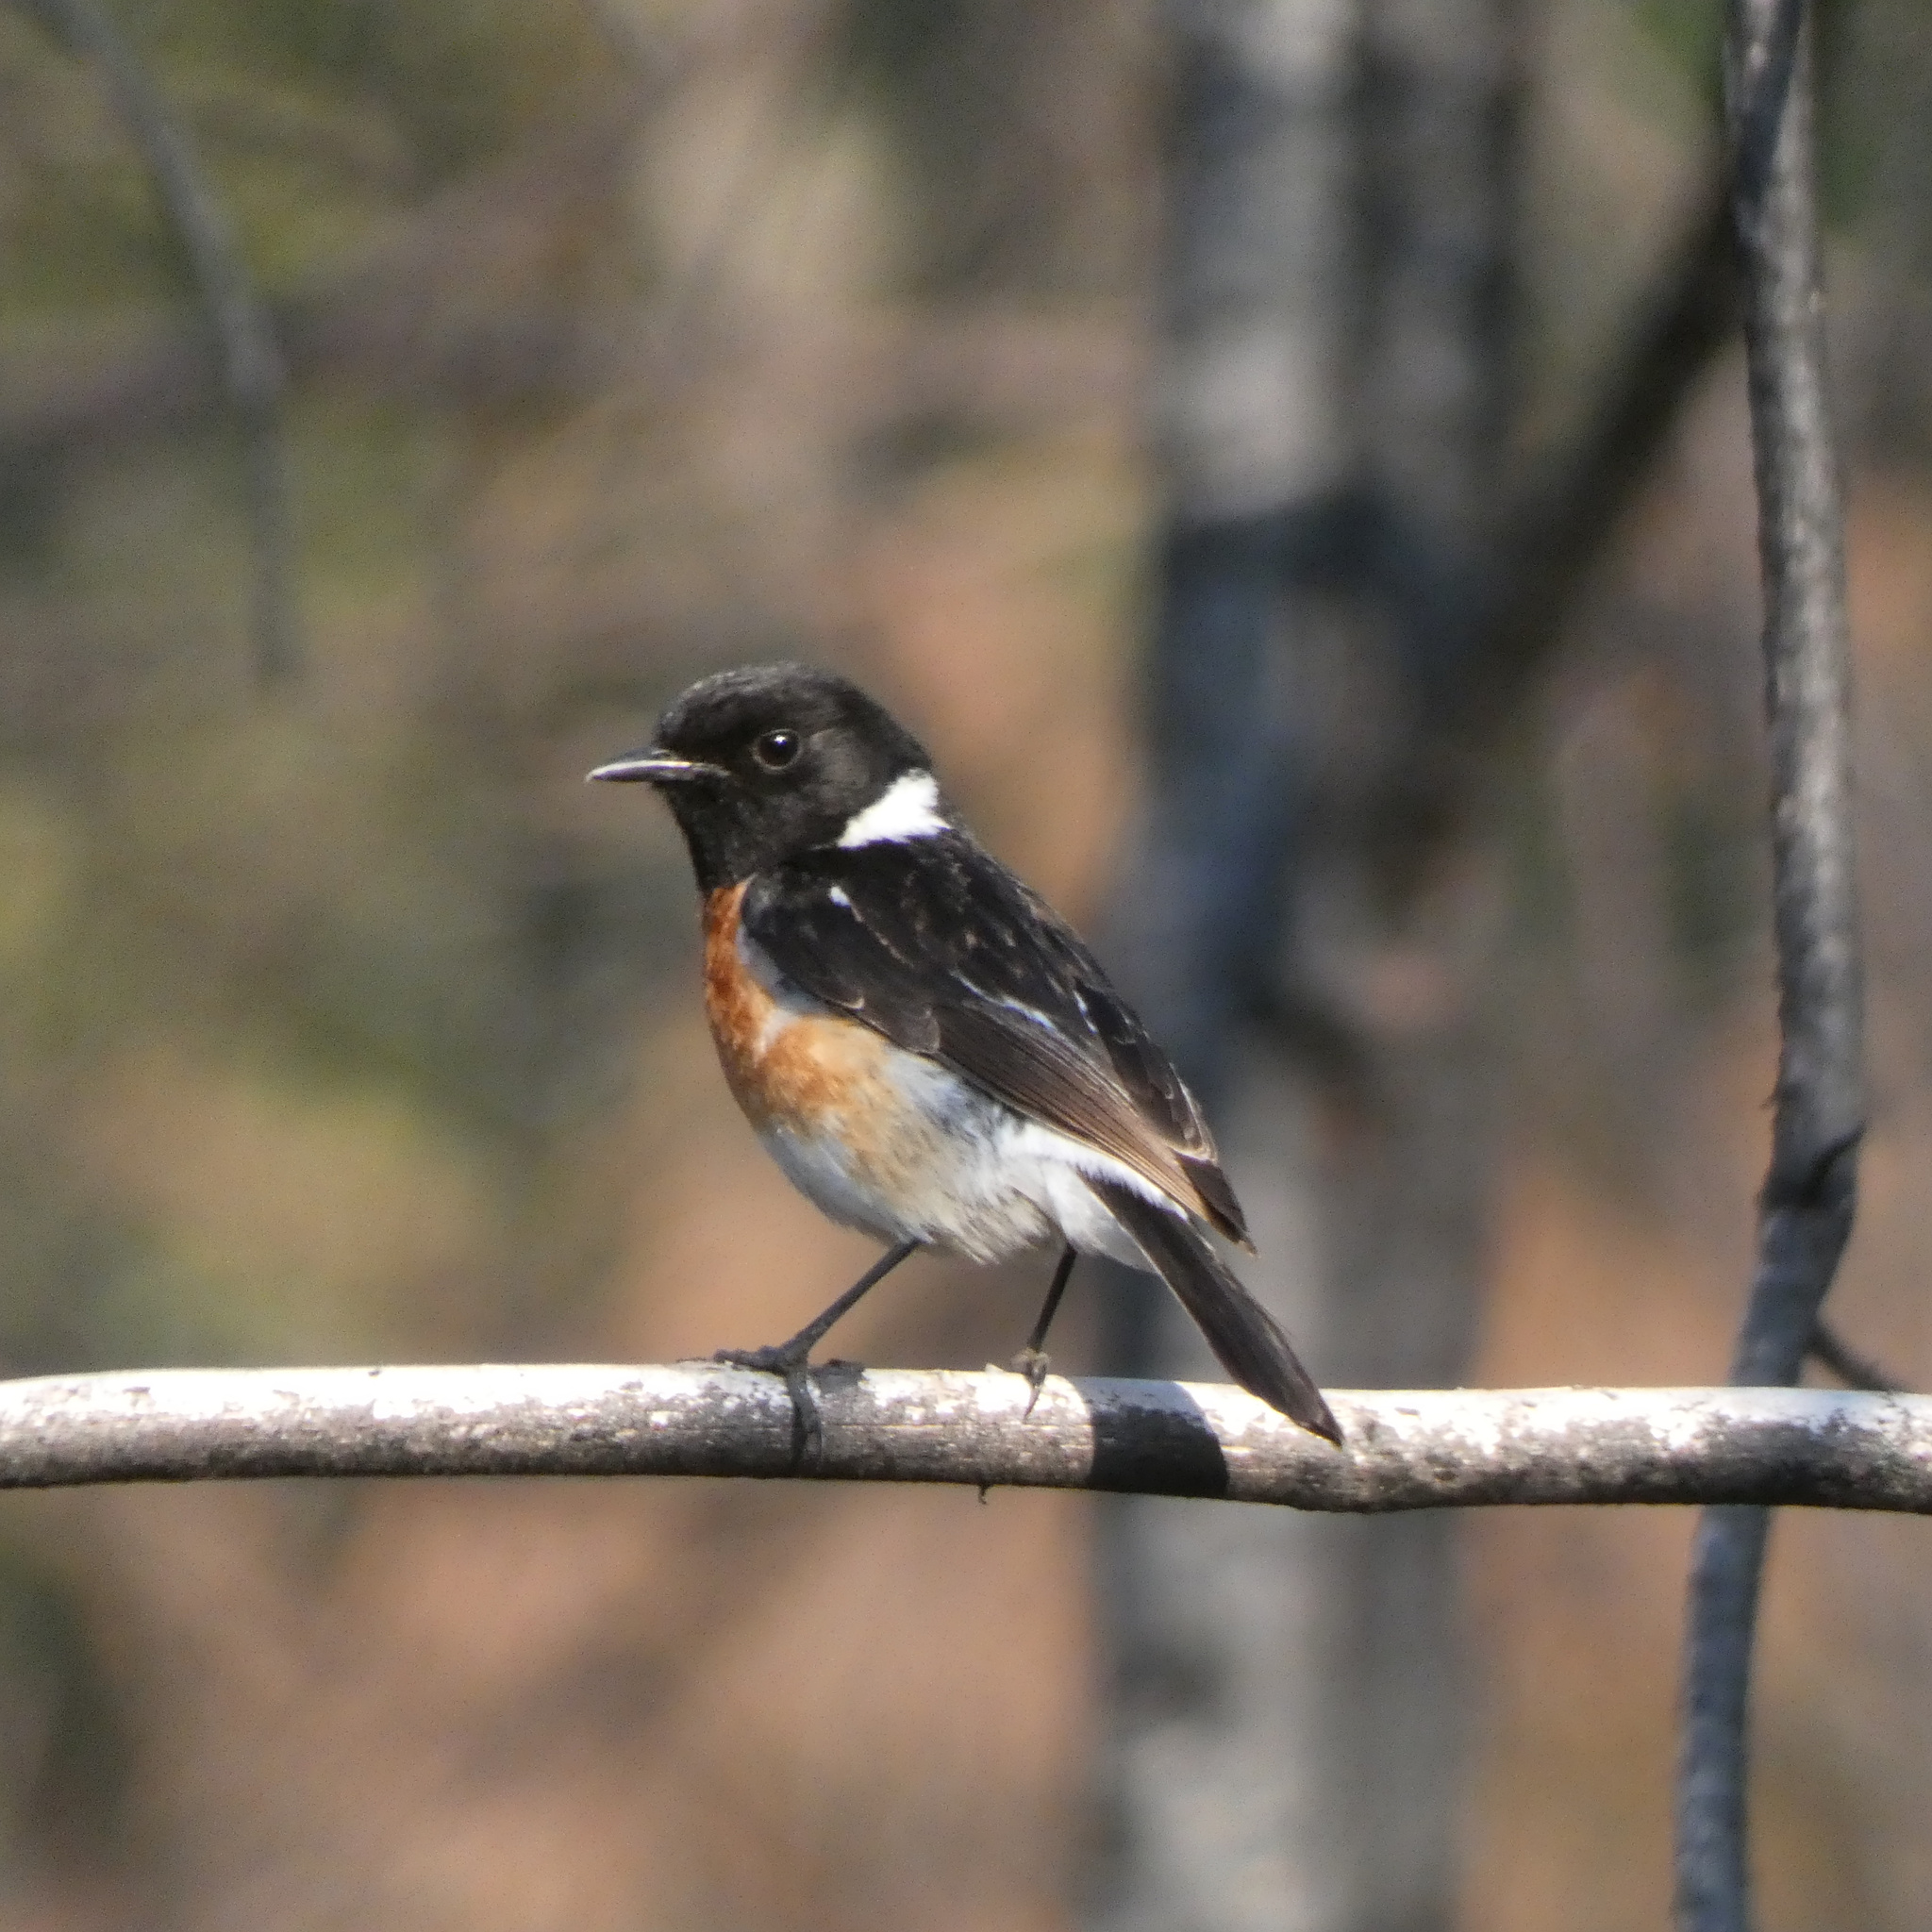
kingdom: Animalia
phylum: Chordata
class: Aves
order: Passeriformes
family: Muscicapidae
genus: Saxicola
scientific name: Saxicola torquatus
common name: African stonechat
